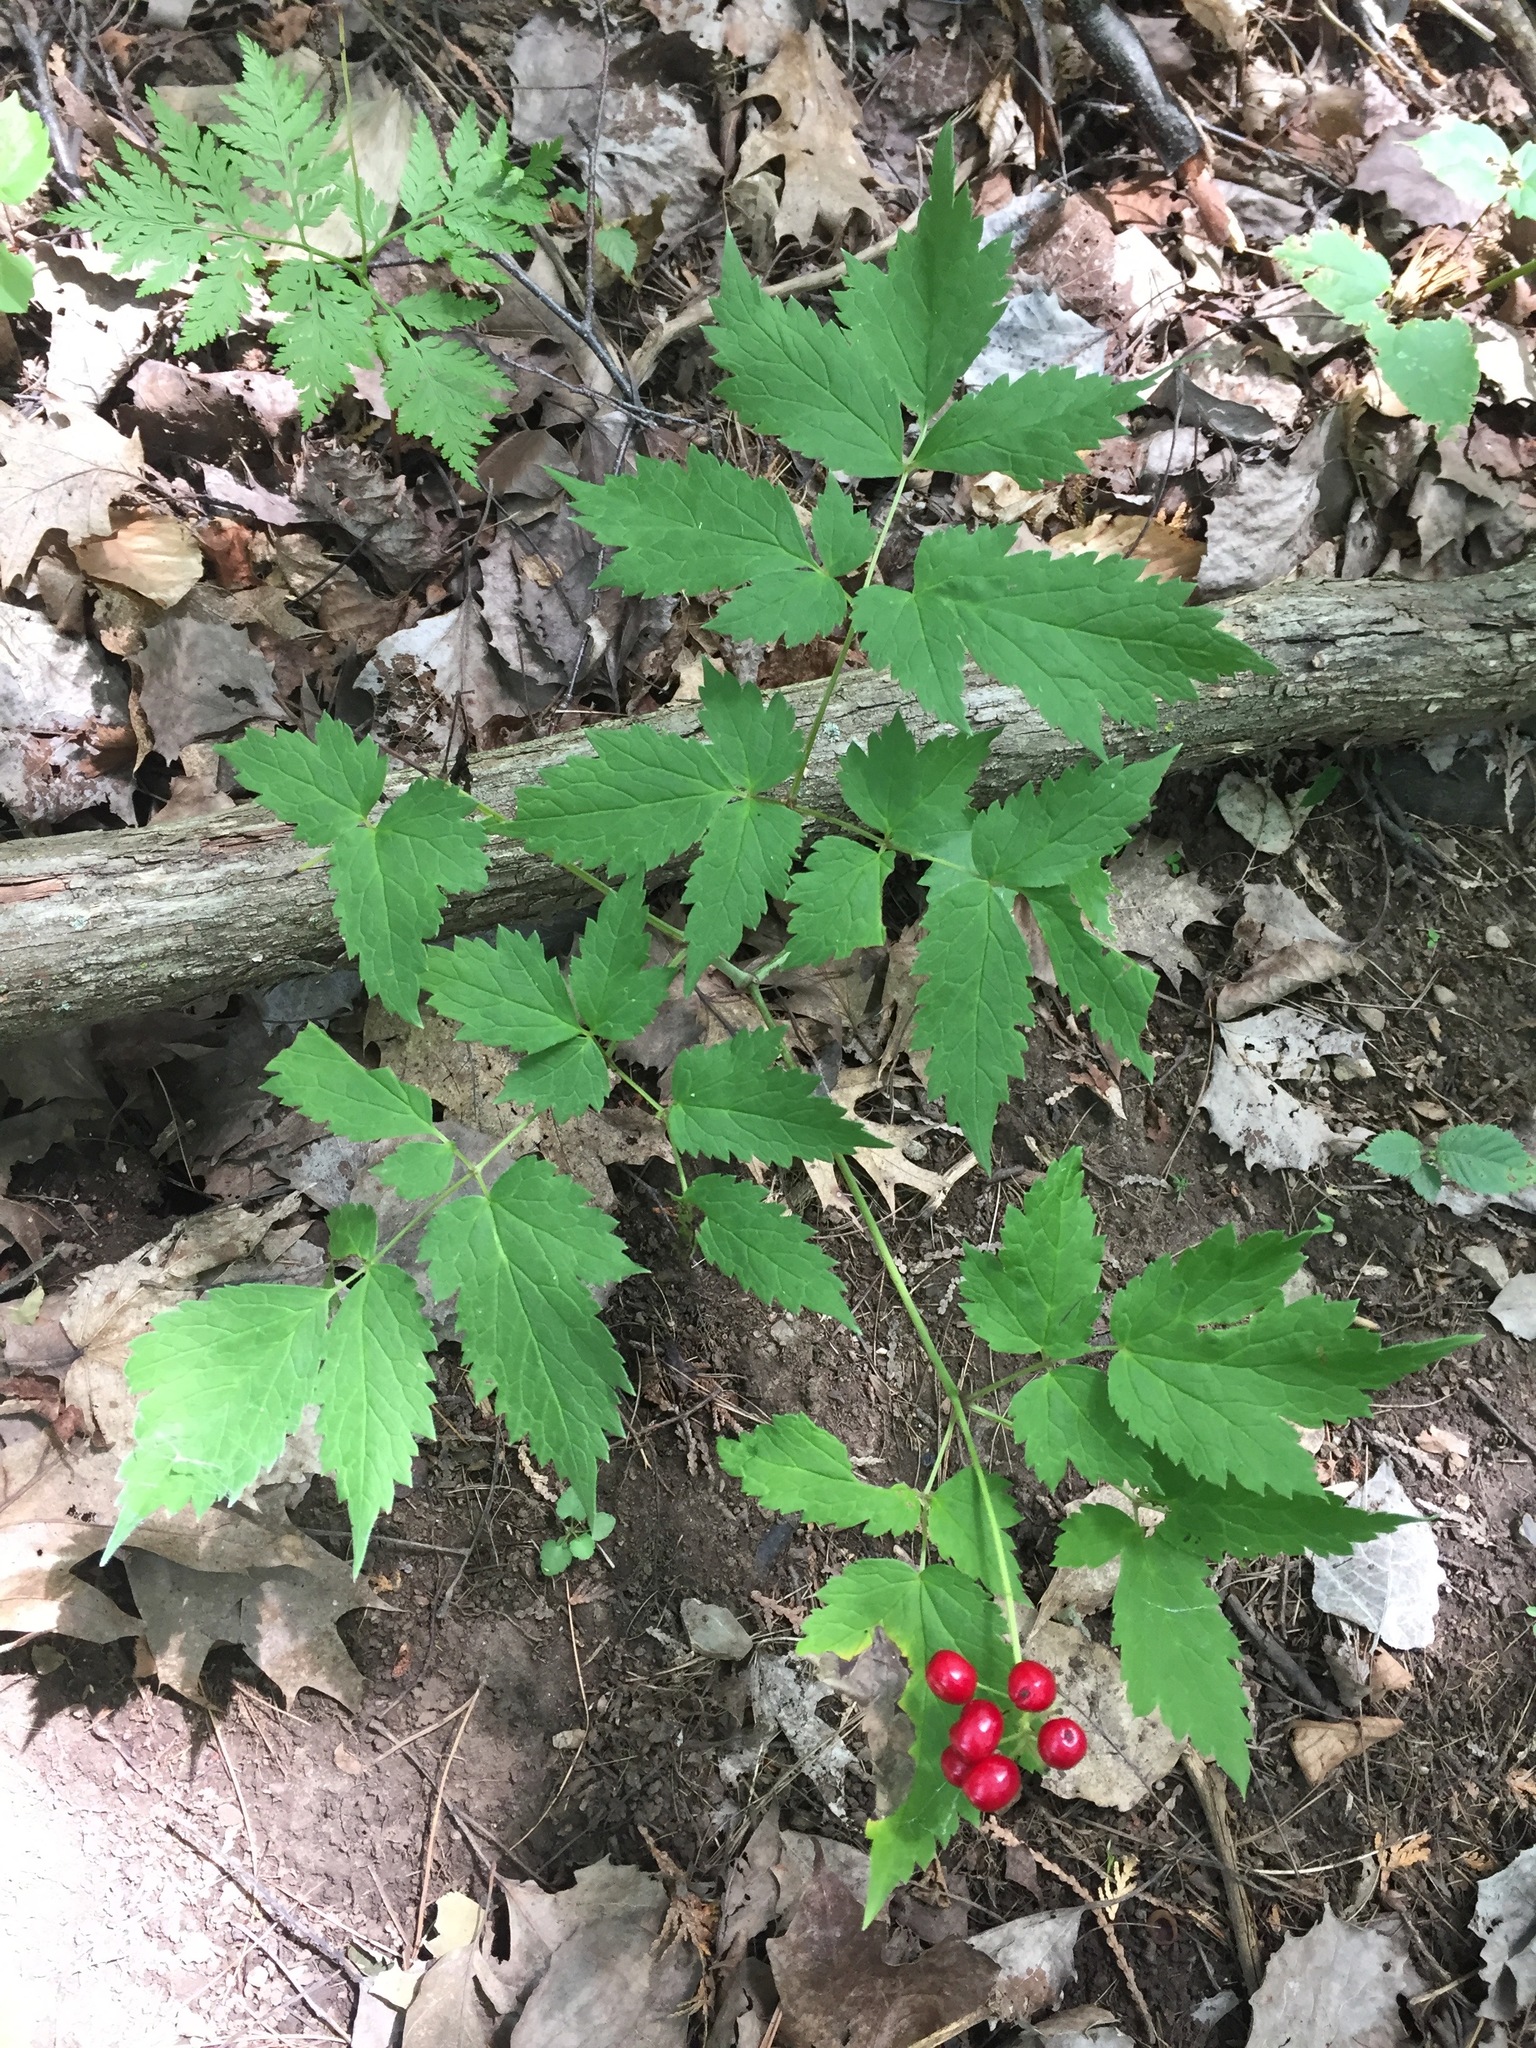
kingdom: Plantae
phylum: Tracheophyta
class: Magnoliopsida
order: Ranunculales
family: Ranunculaceae
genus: Actaea
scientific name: Actaea rubra
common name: Red baneberry
